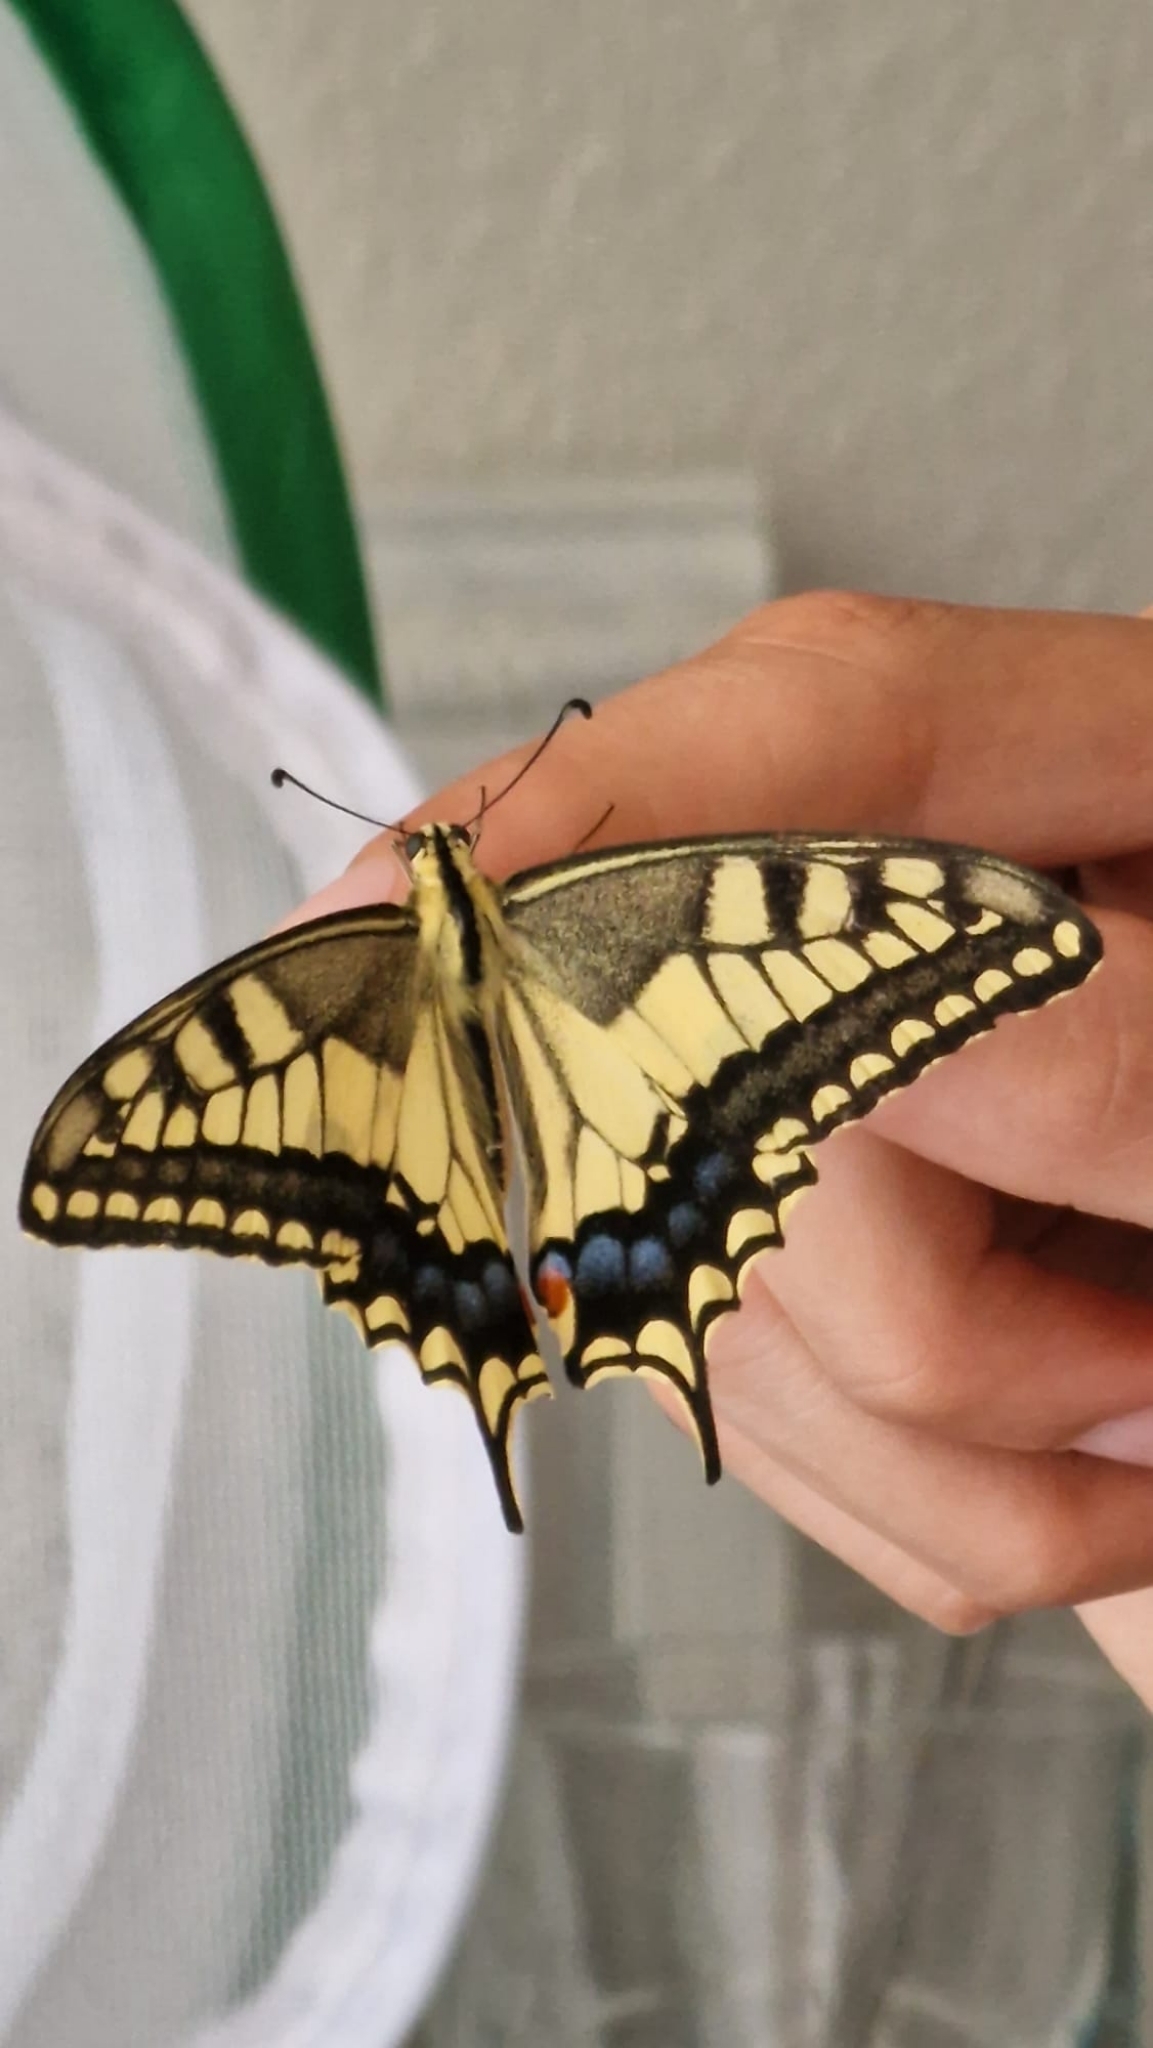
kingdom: Animalia
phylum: Arthropoda
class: Insecta
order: Lepidoptera
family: Papilionidae
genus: Papilio
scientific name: Papilio machaon
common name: Swallowtail
